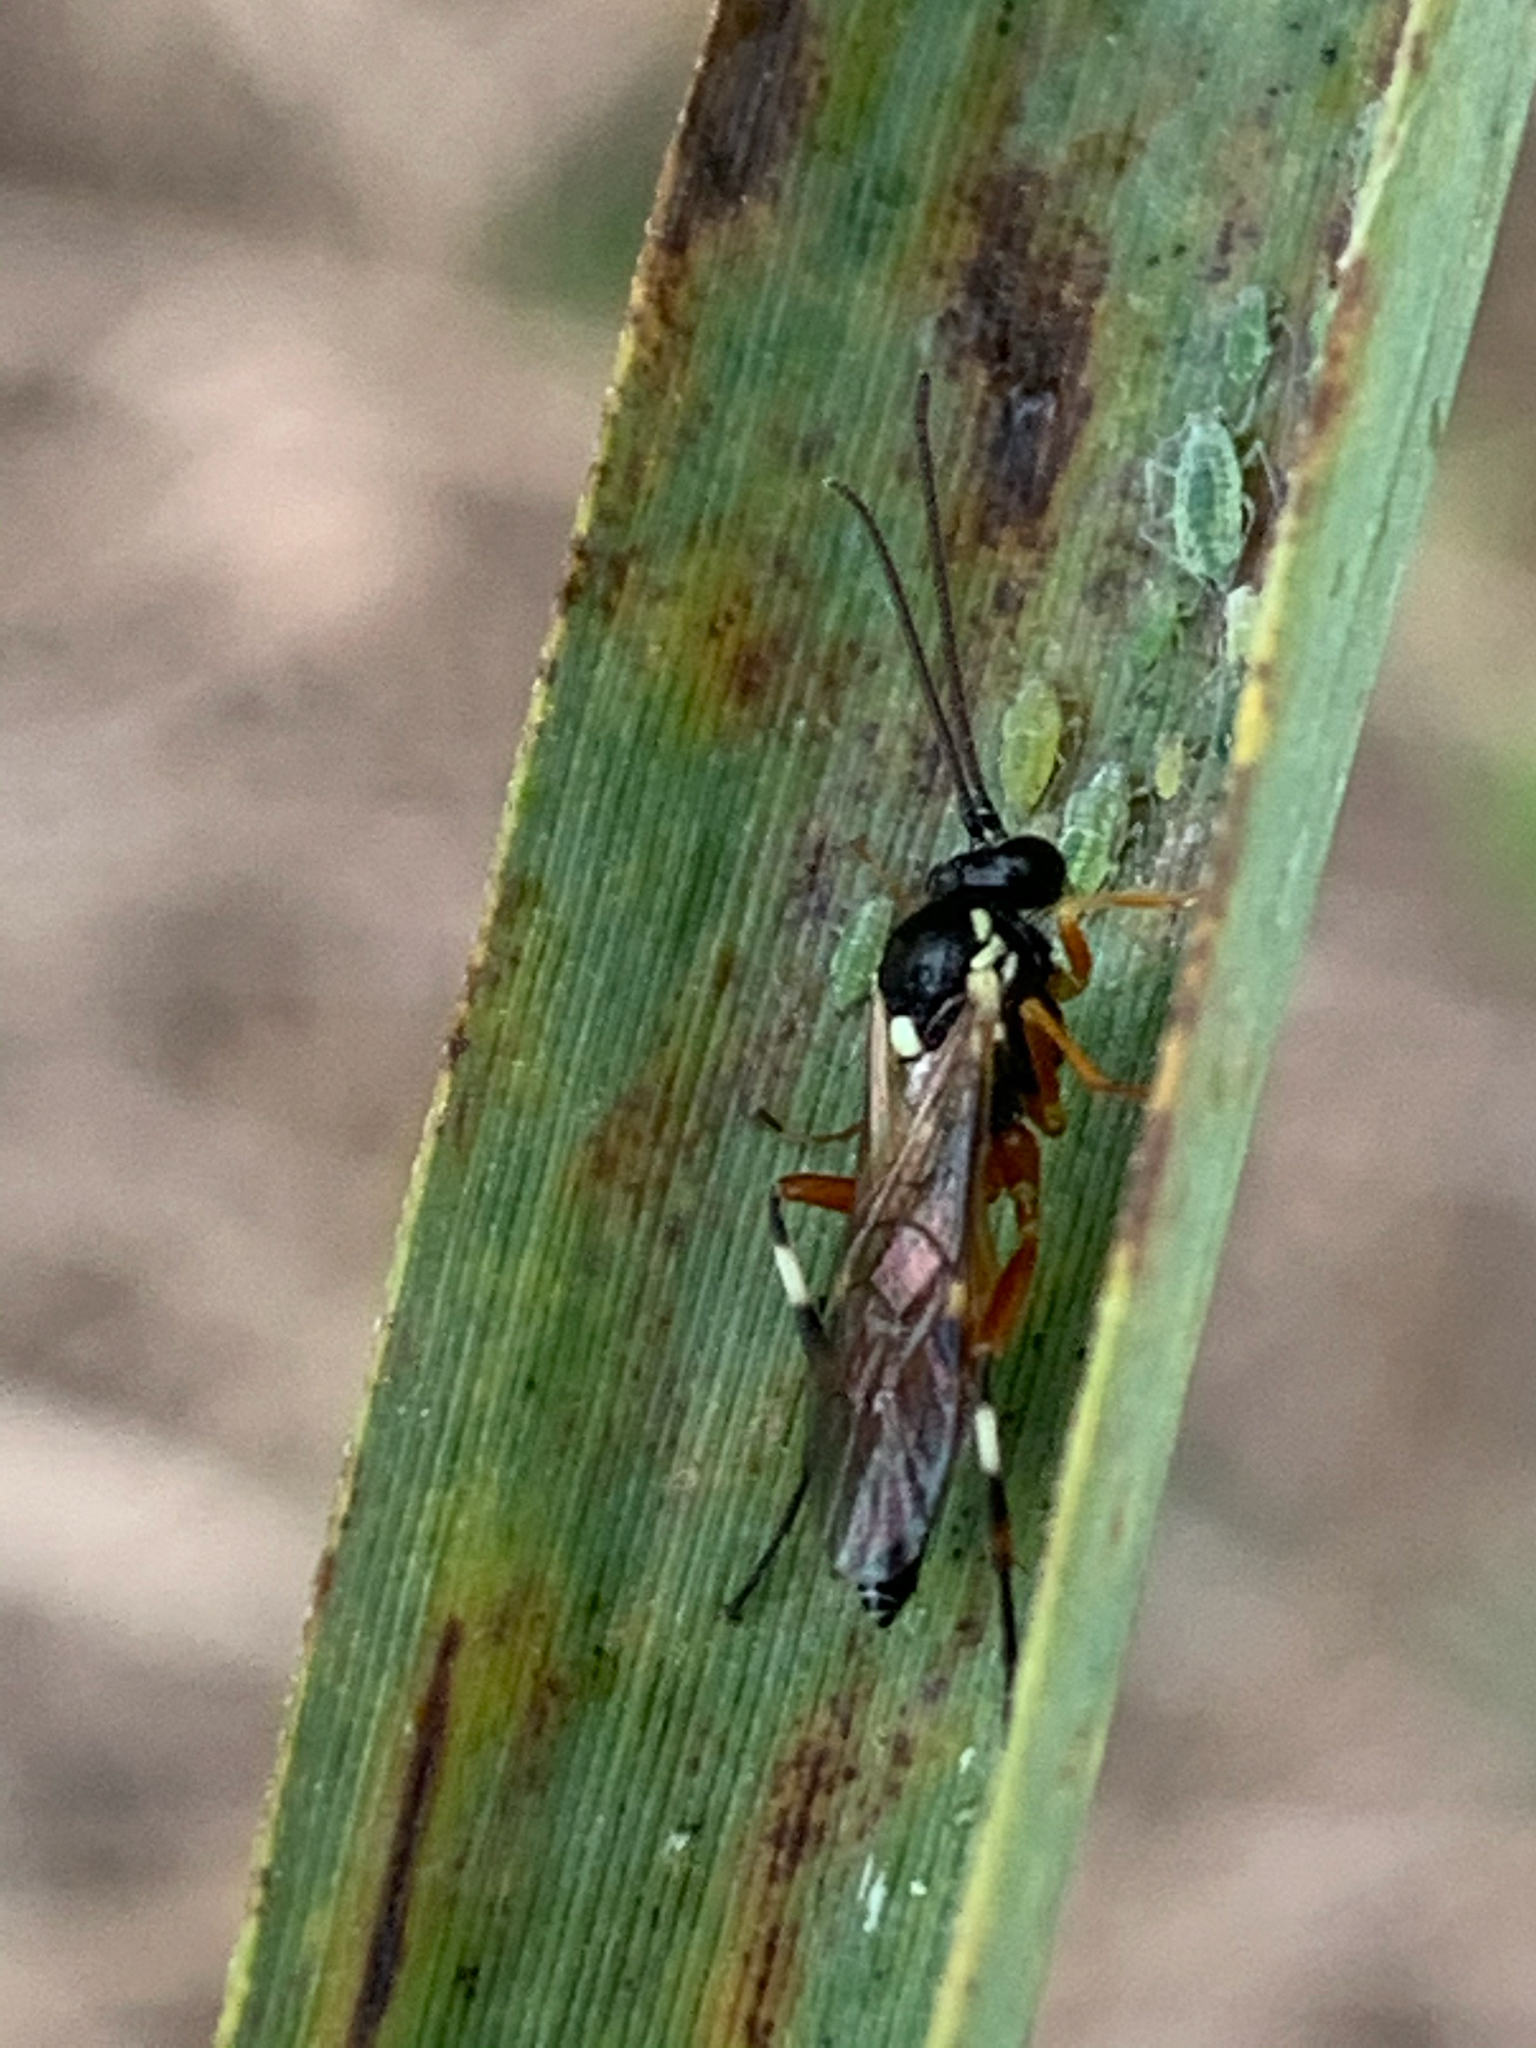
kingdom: Animalia
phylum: Arthropoda
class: Insecta
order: Hymenoptera
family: Ichneumonidae
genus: Diplazon
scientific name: Diplazon laetatorius
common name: Parasitoid wasp
